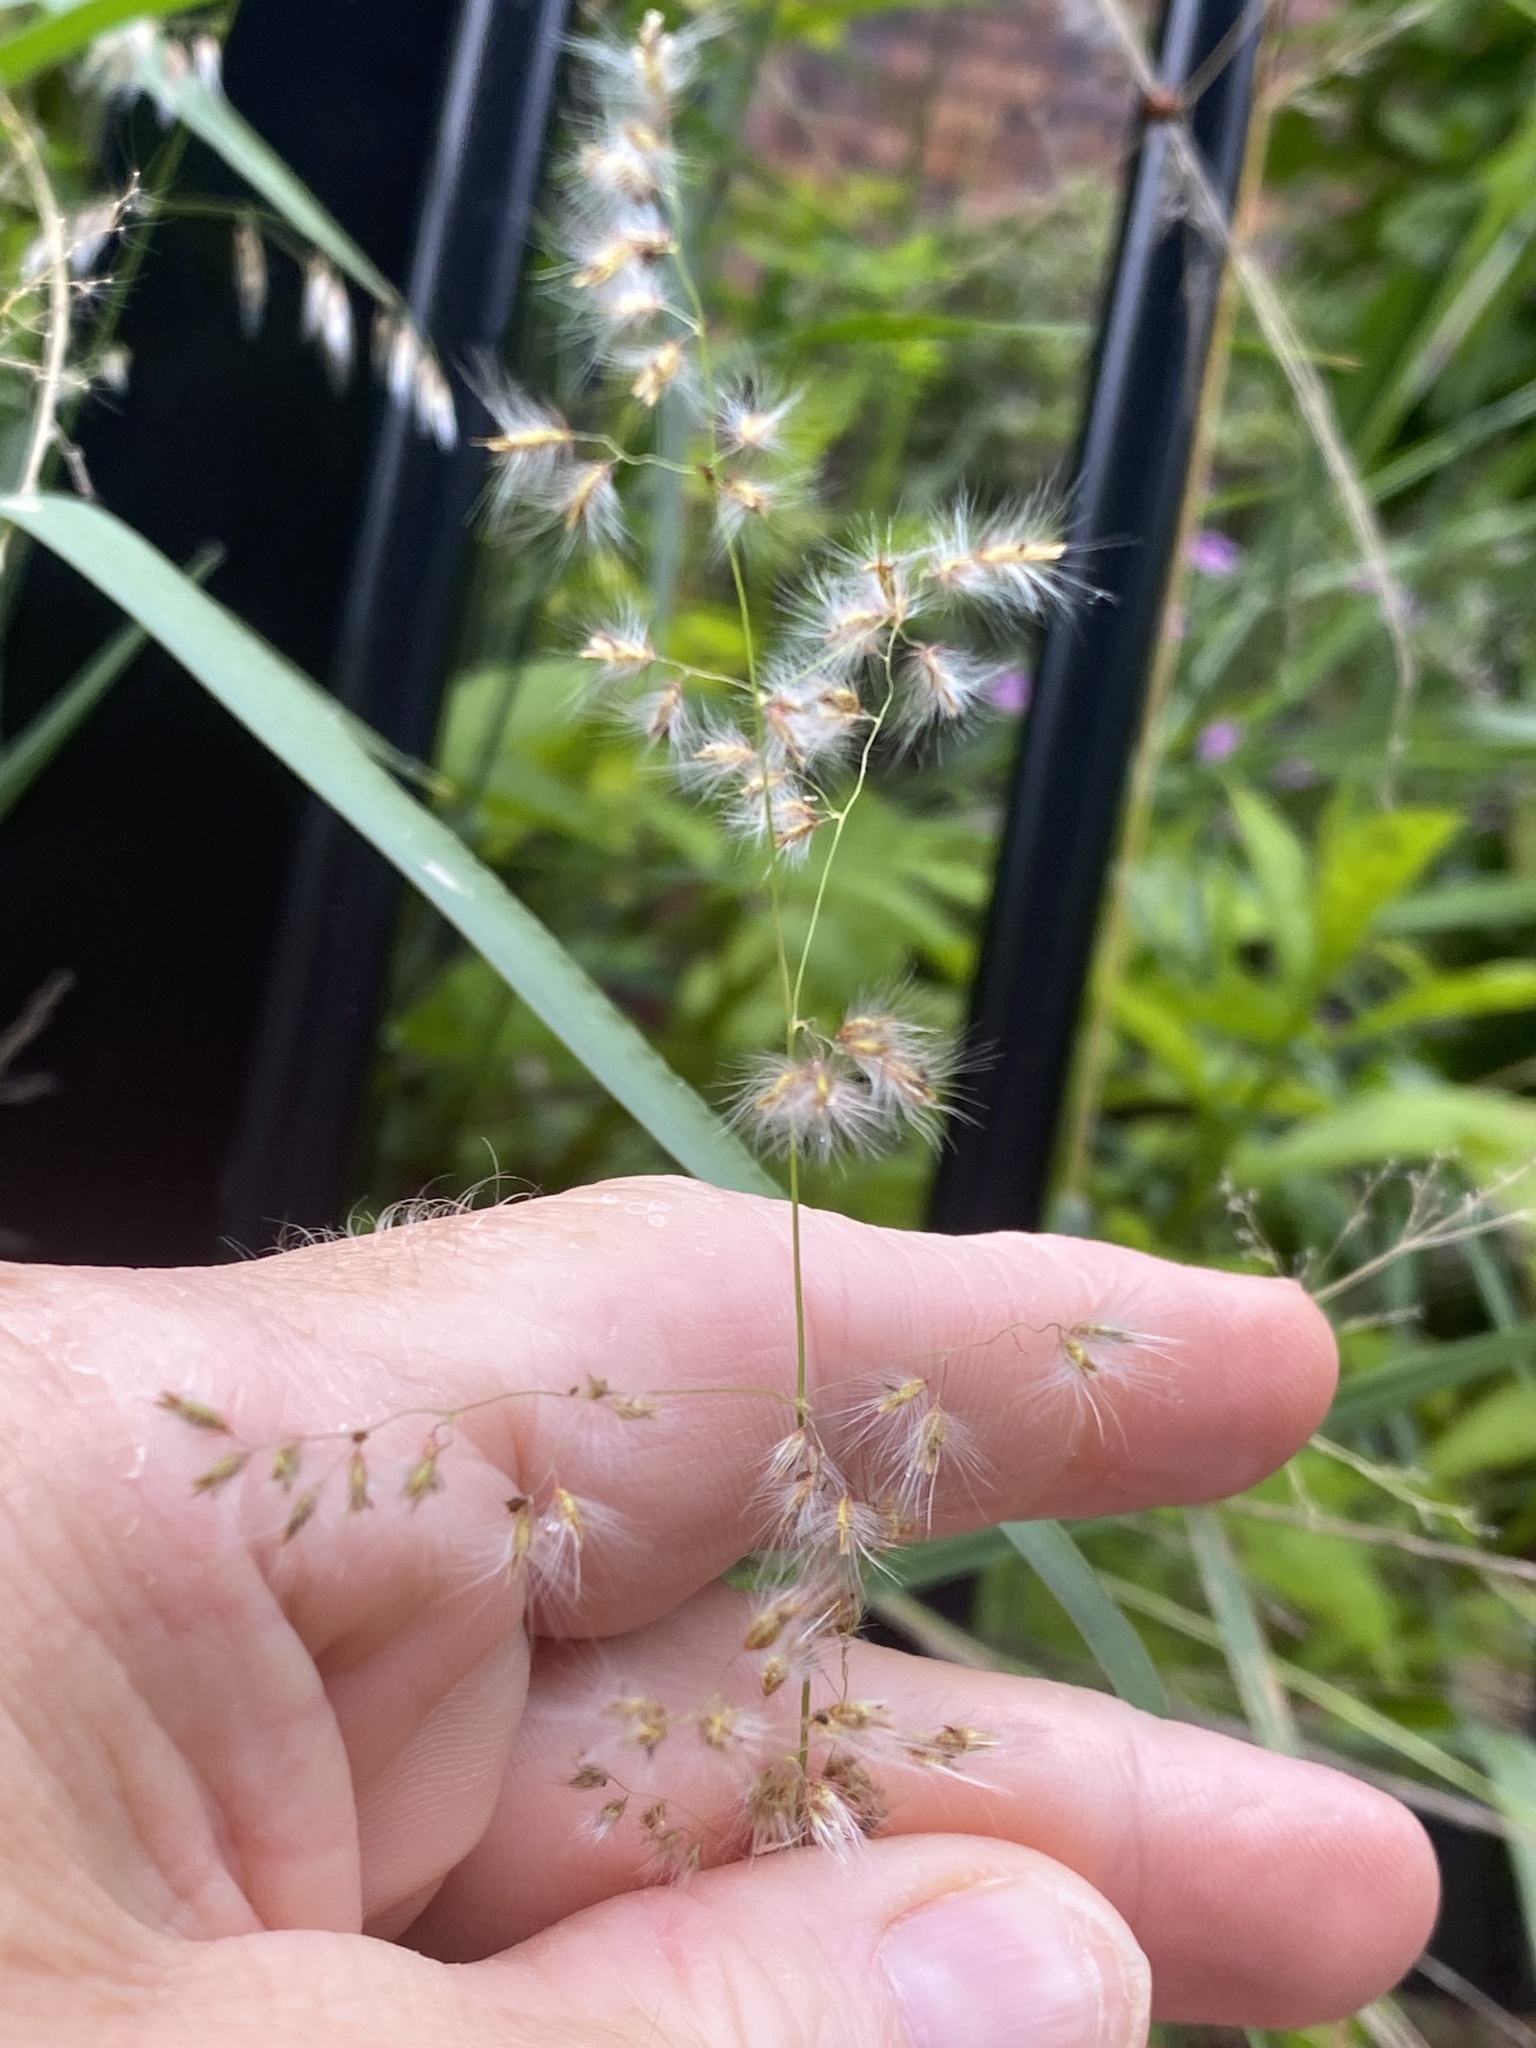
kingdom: Plantae
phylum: Tracheophyta
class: Liliopsida
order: Poales
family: Poaceae
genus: Melinis
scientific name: Melinis repens
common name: Rose natal grass
